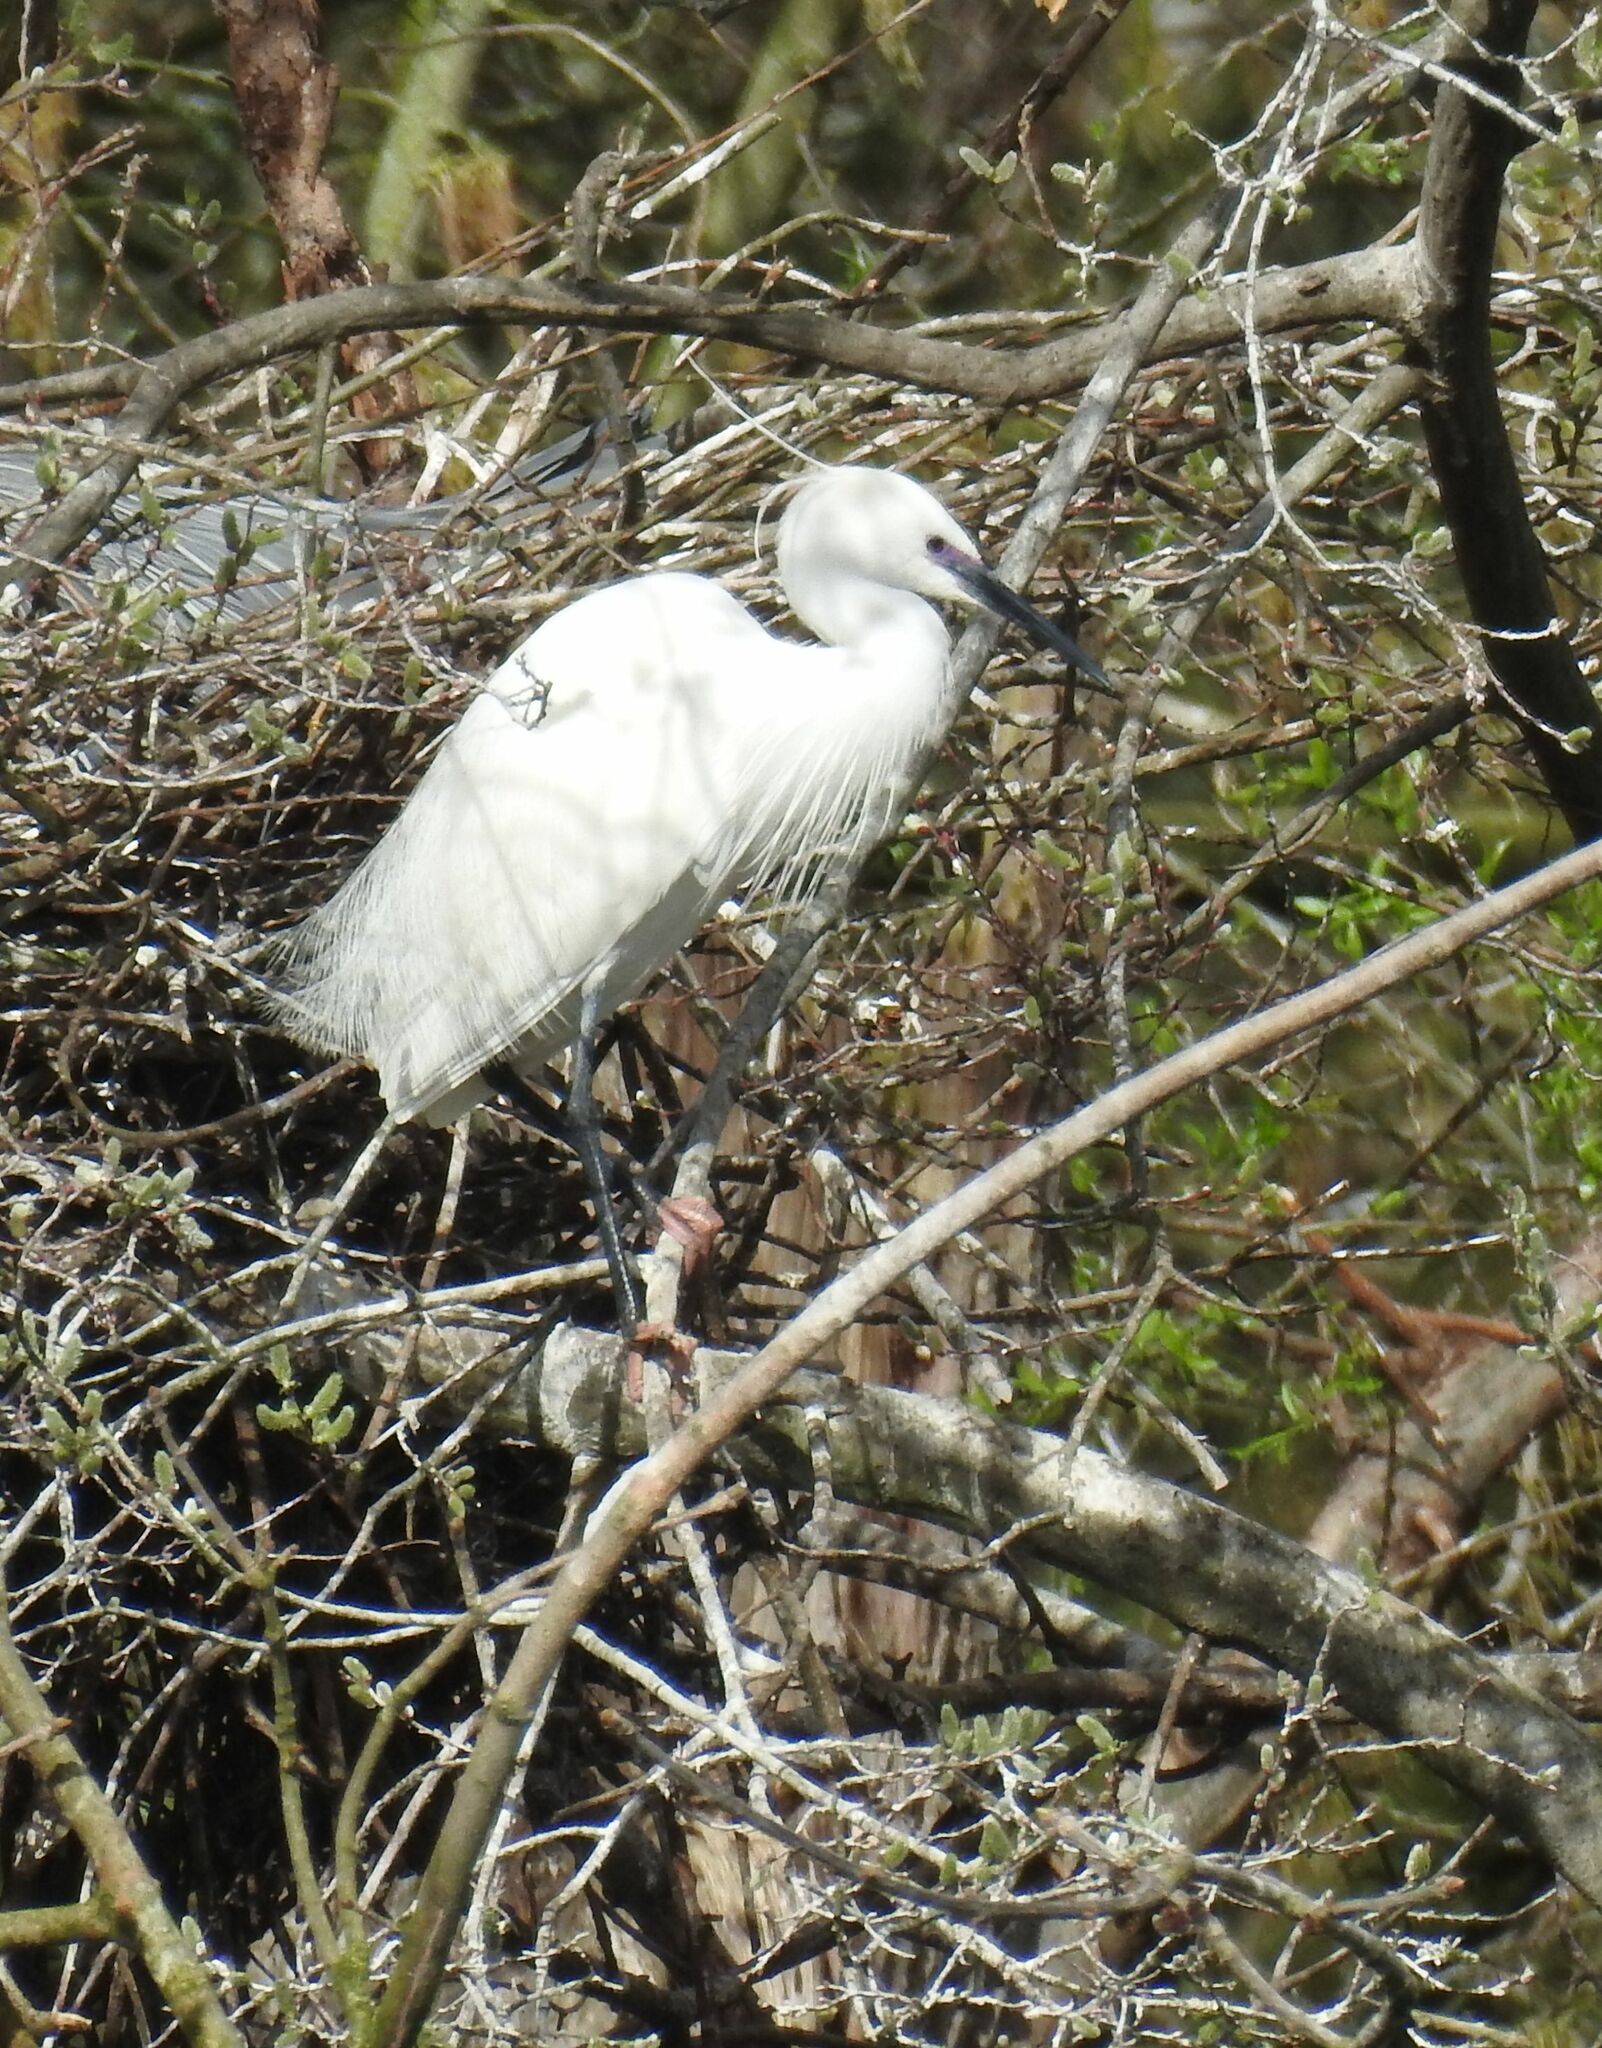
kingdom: Animalia
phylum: Chordata
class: Aves
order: Pelecaniformes
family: Ardeidae
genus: Egretta
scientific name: Egretta garzetta
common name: Little egret
